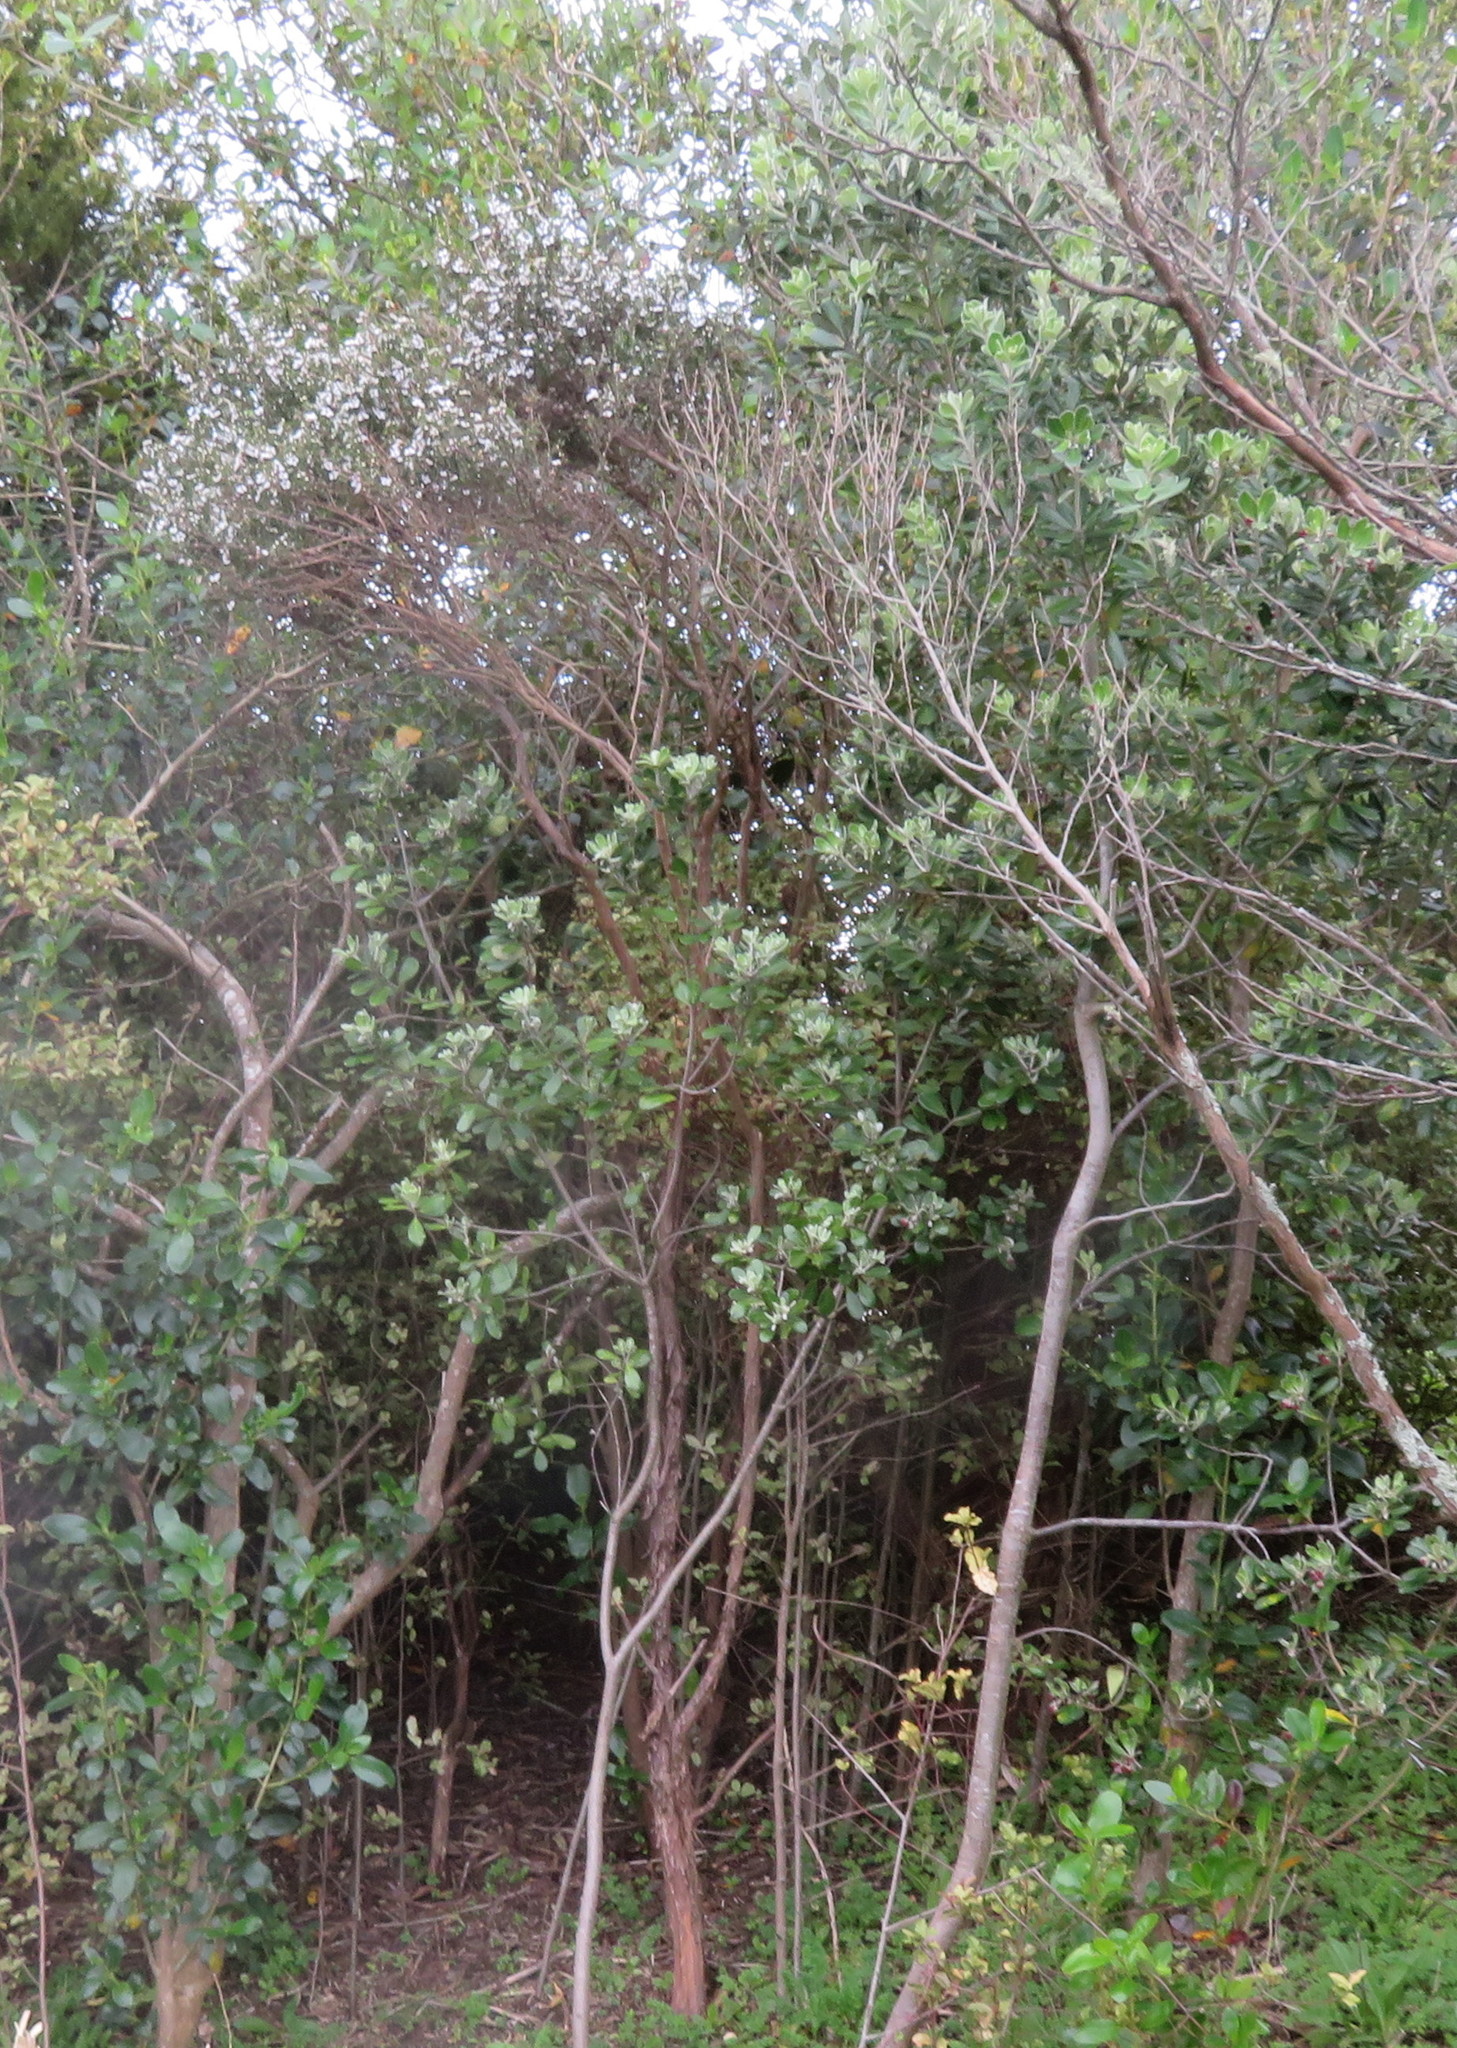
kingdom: Plantae
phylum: Tracheophyta
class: Magnoliopsida
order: Apiales
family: Pittosporaceae
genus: Pittosporum
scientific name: Pittosporum crassifolium
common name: Karo
